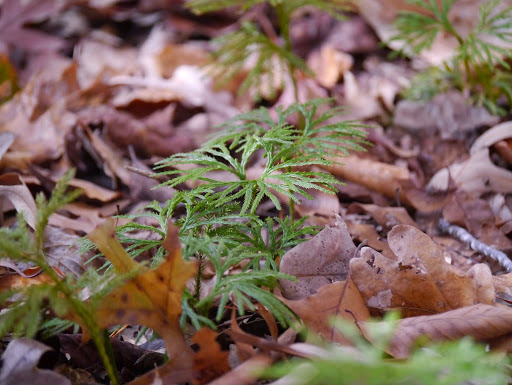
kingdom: Plantae
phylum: Tracheophyta
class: Lycopodiopsida
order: Lycopodiales
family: Lycopodiaceae
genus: Diphasiastrum
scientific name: Diphasiastrum digitatum
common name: Southern running-pine
